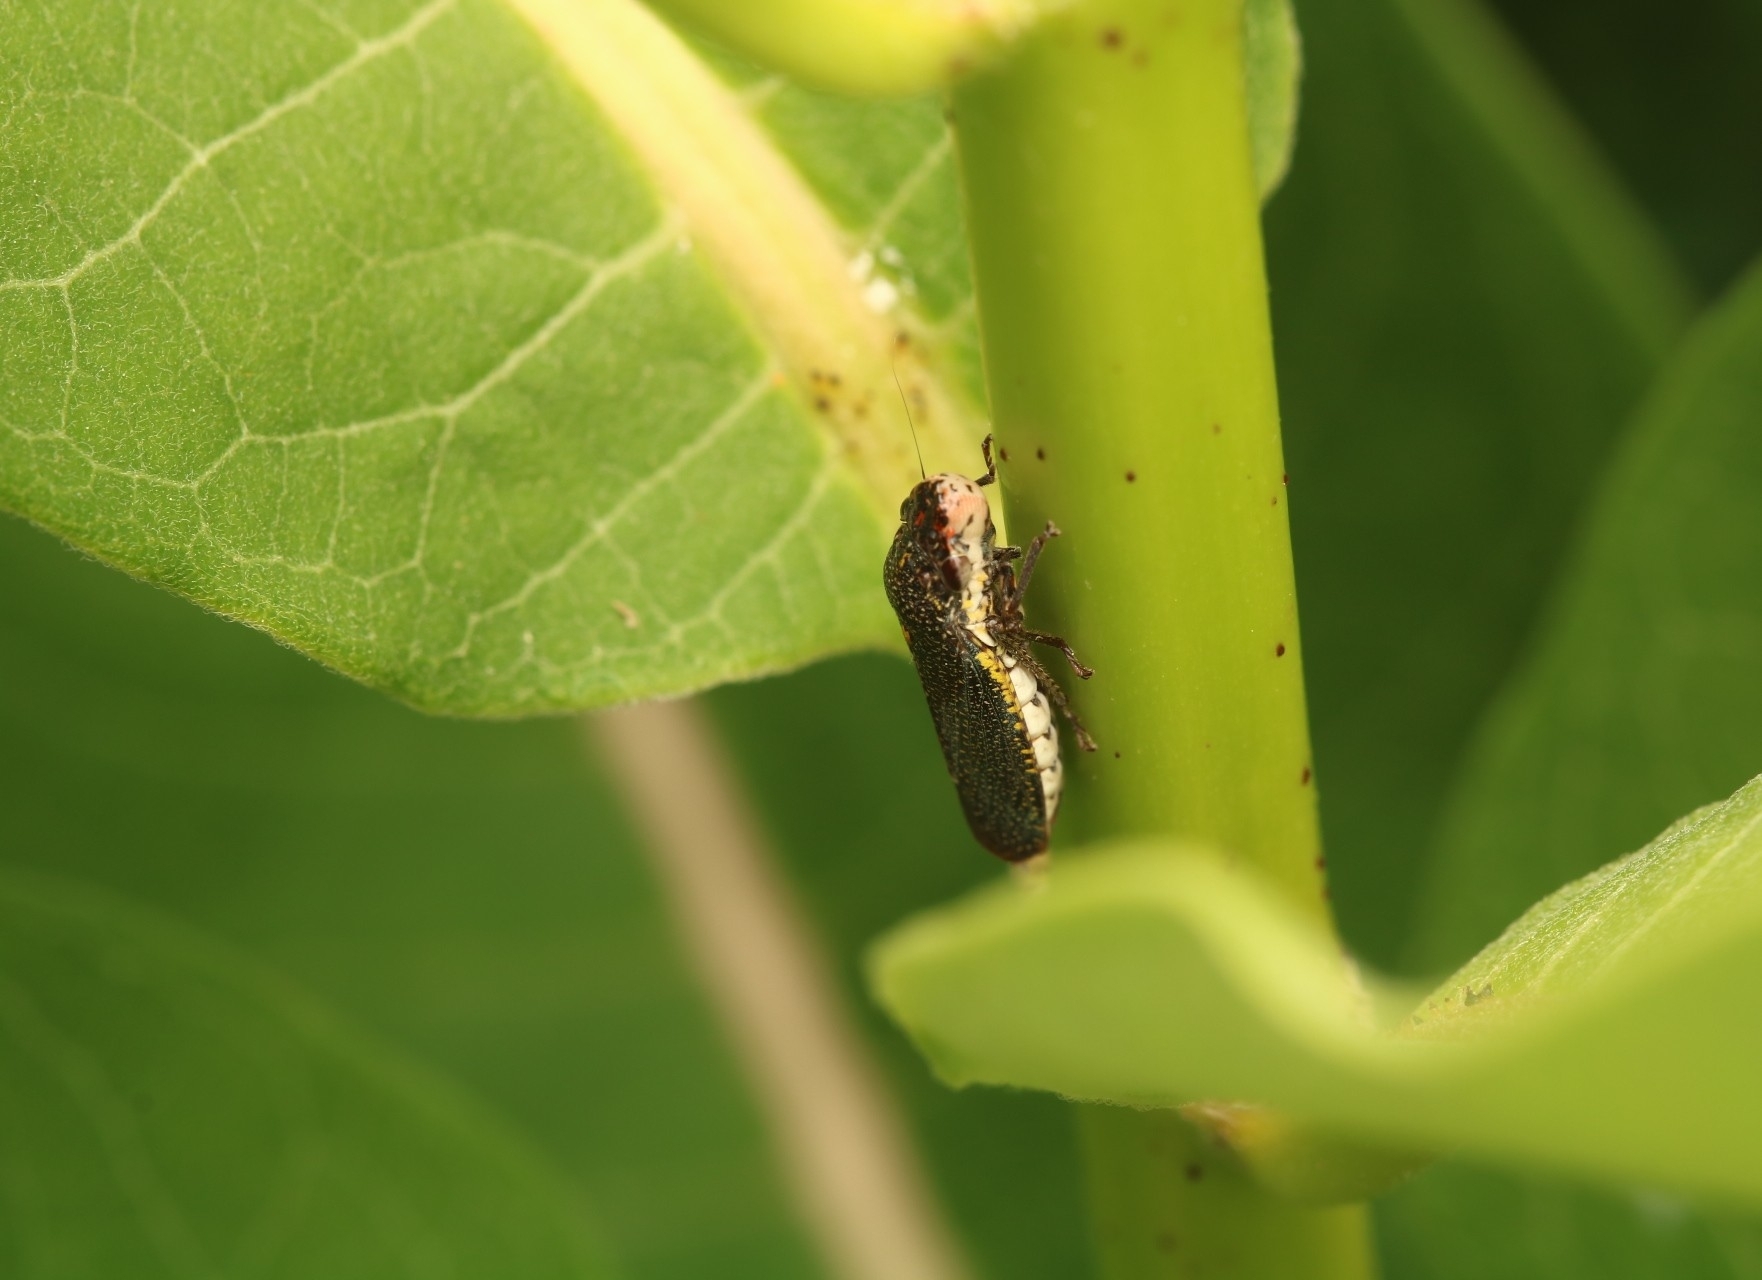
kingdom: Animalia
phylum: Arthropoda
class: Insecta
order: Hemiptera
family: Cicadellidae
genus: Paraulacizes
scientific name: Paraulacizes irrorata
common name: Speckled sharpshooter
